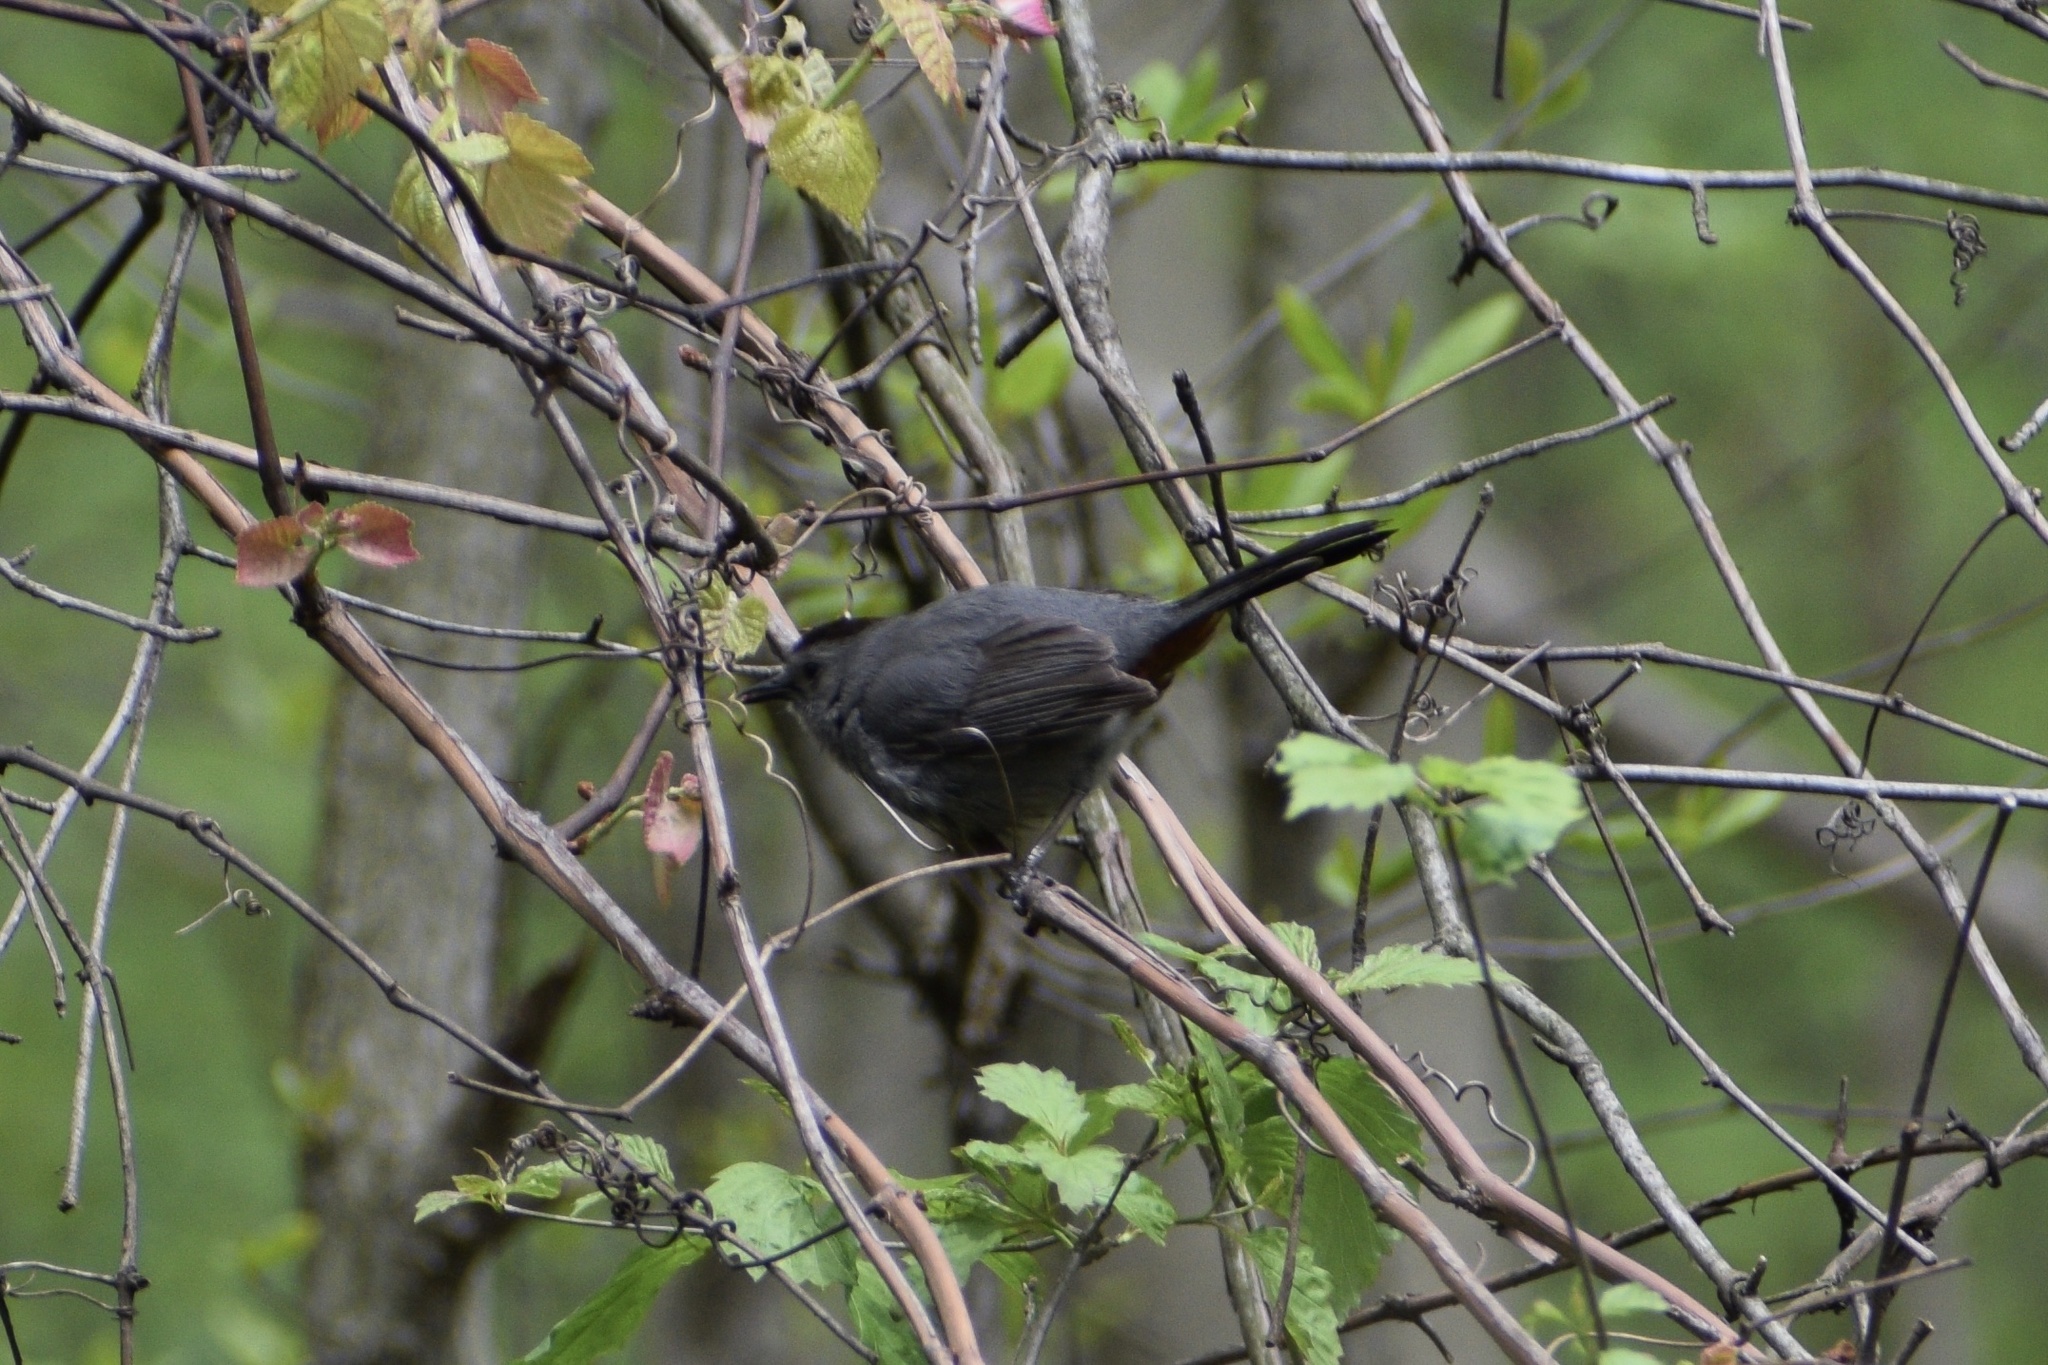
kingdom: Animalia
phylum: Chordata
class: Aves
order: Passeriformes
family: Mimidae
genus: Dumetella
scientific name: Dumetella carolinensis
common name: Gray catbird
